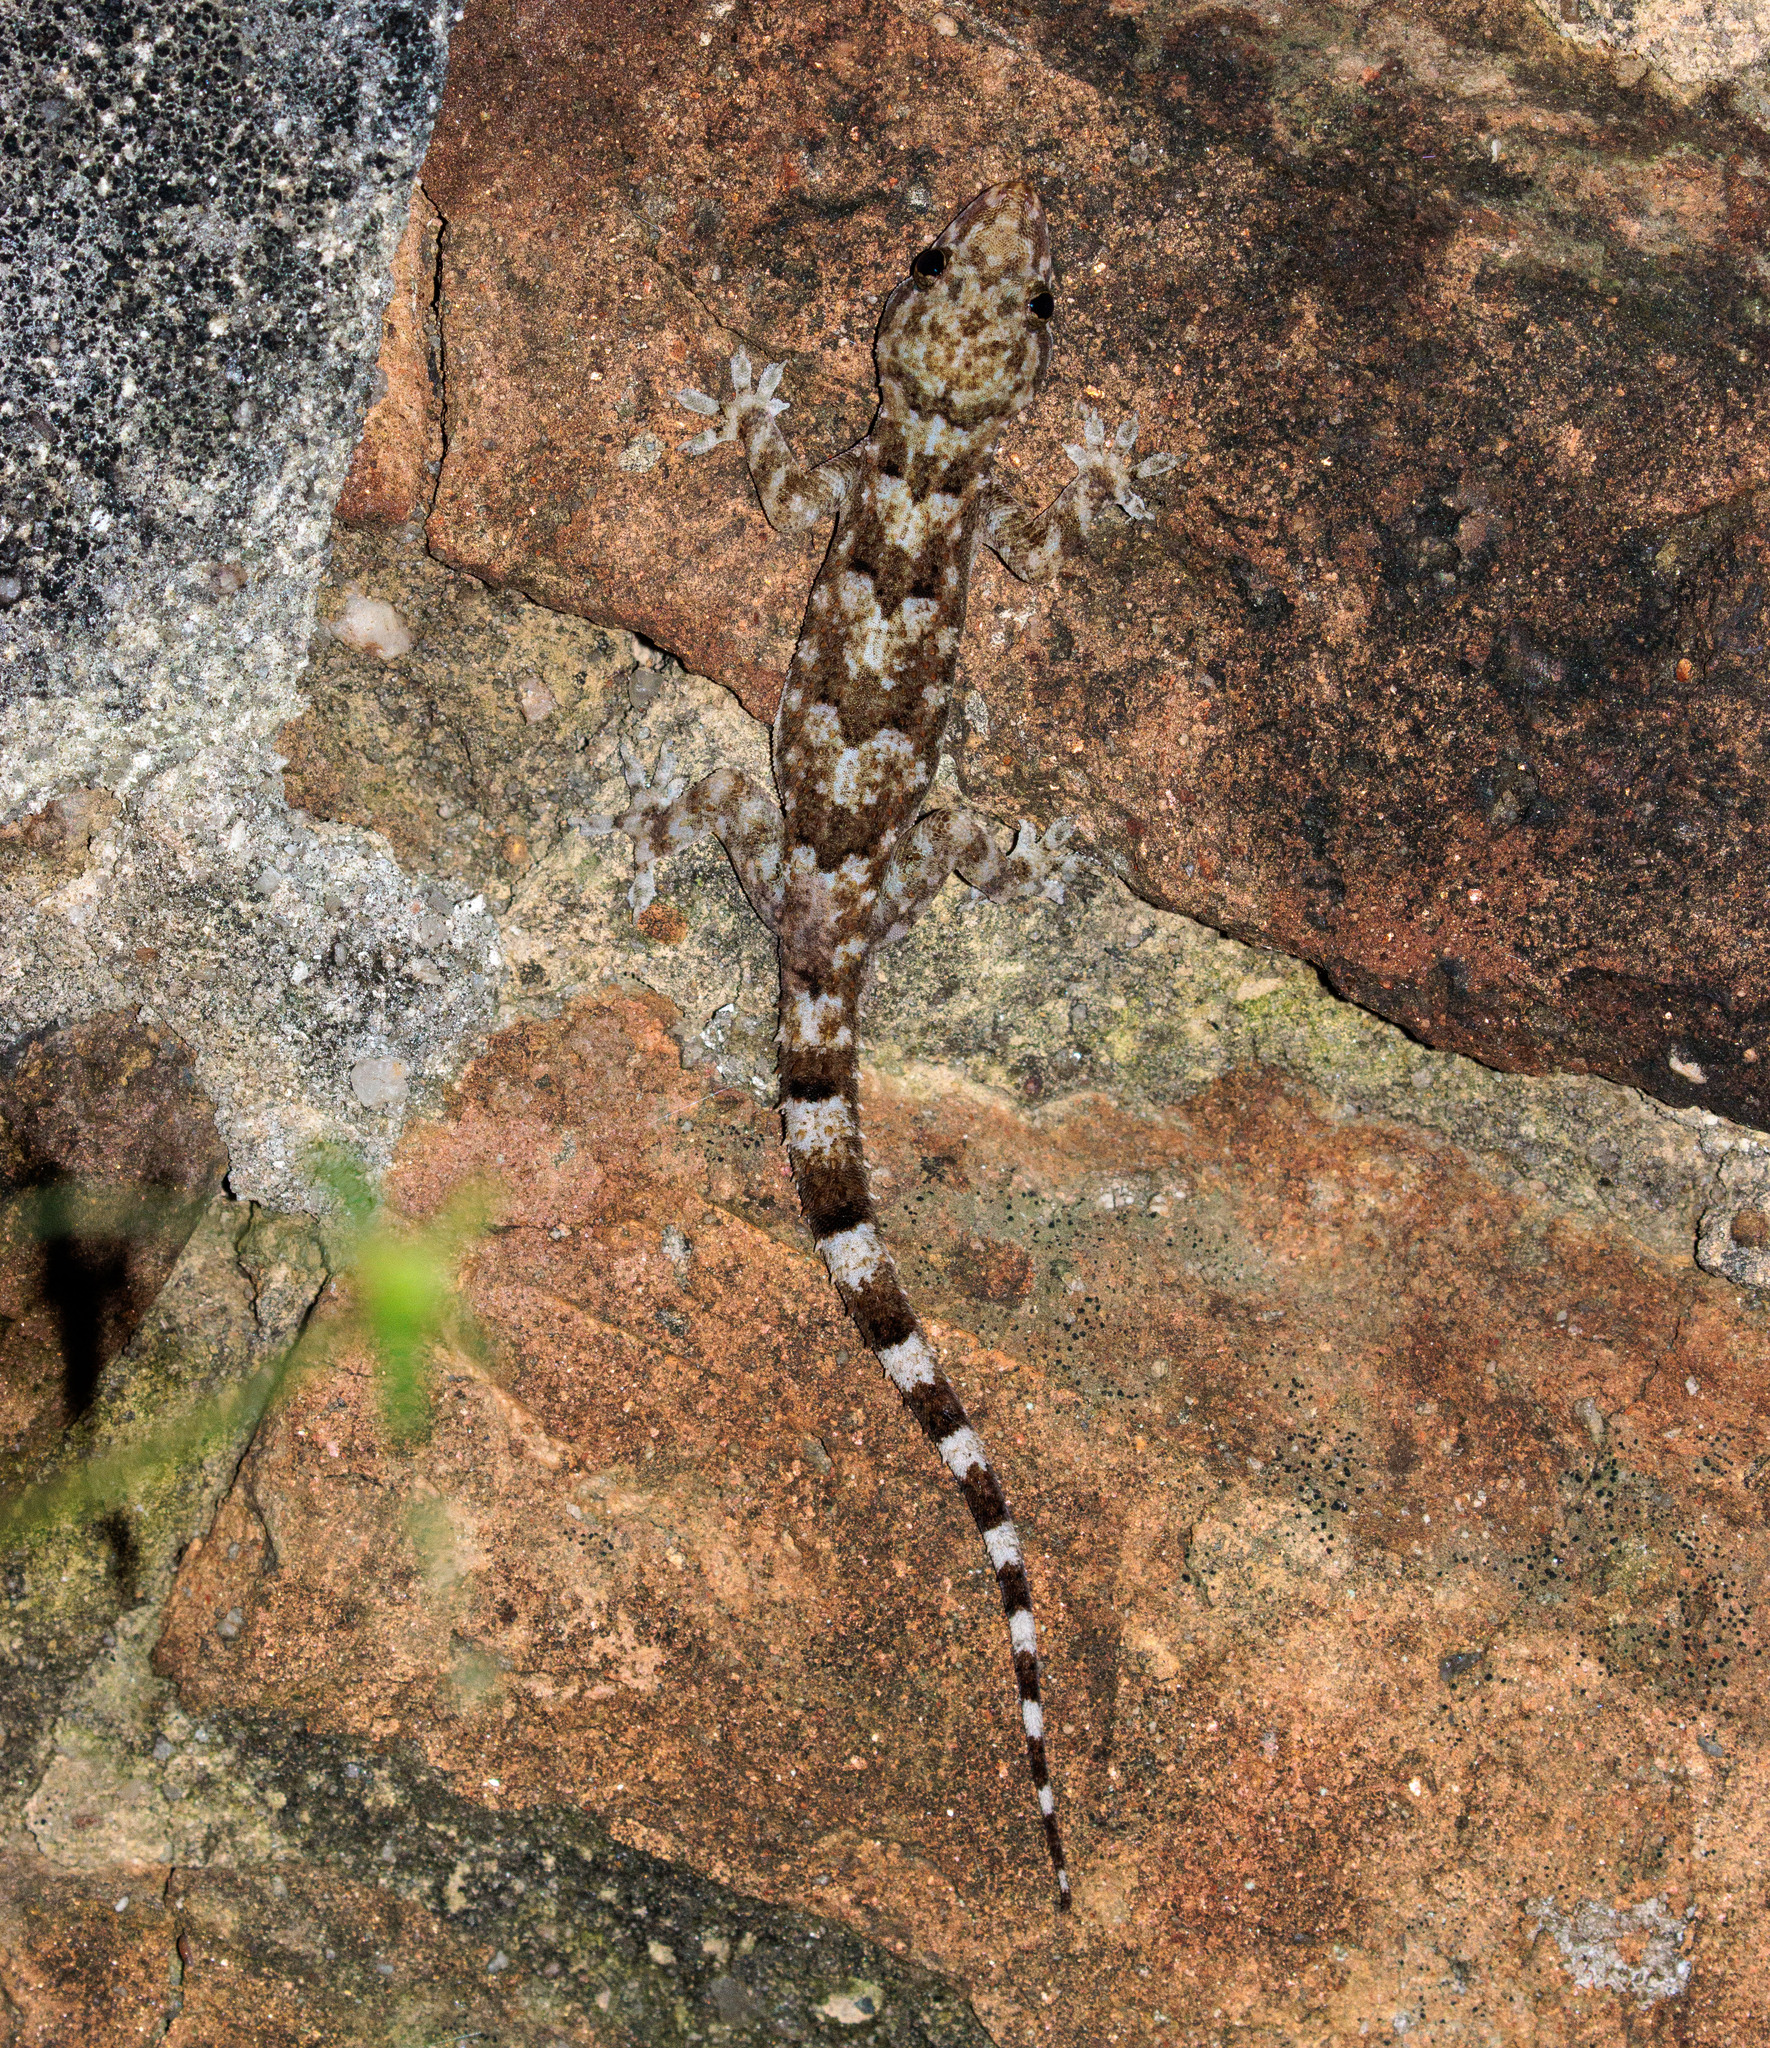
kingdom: Animalia
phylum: Chordata
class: Squamata
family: Gekkonidae
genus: Hemidactylus
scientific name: Hemidactylus mabouia
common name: House gecko
